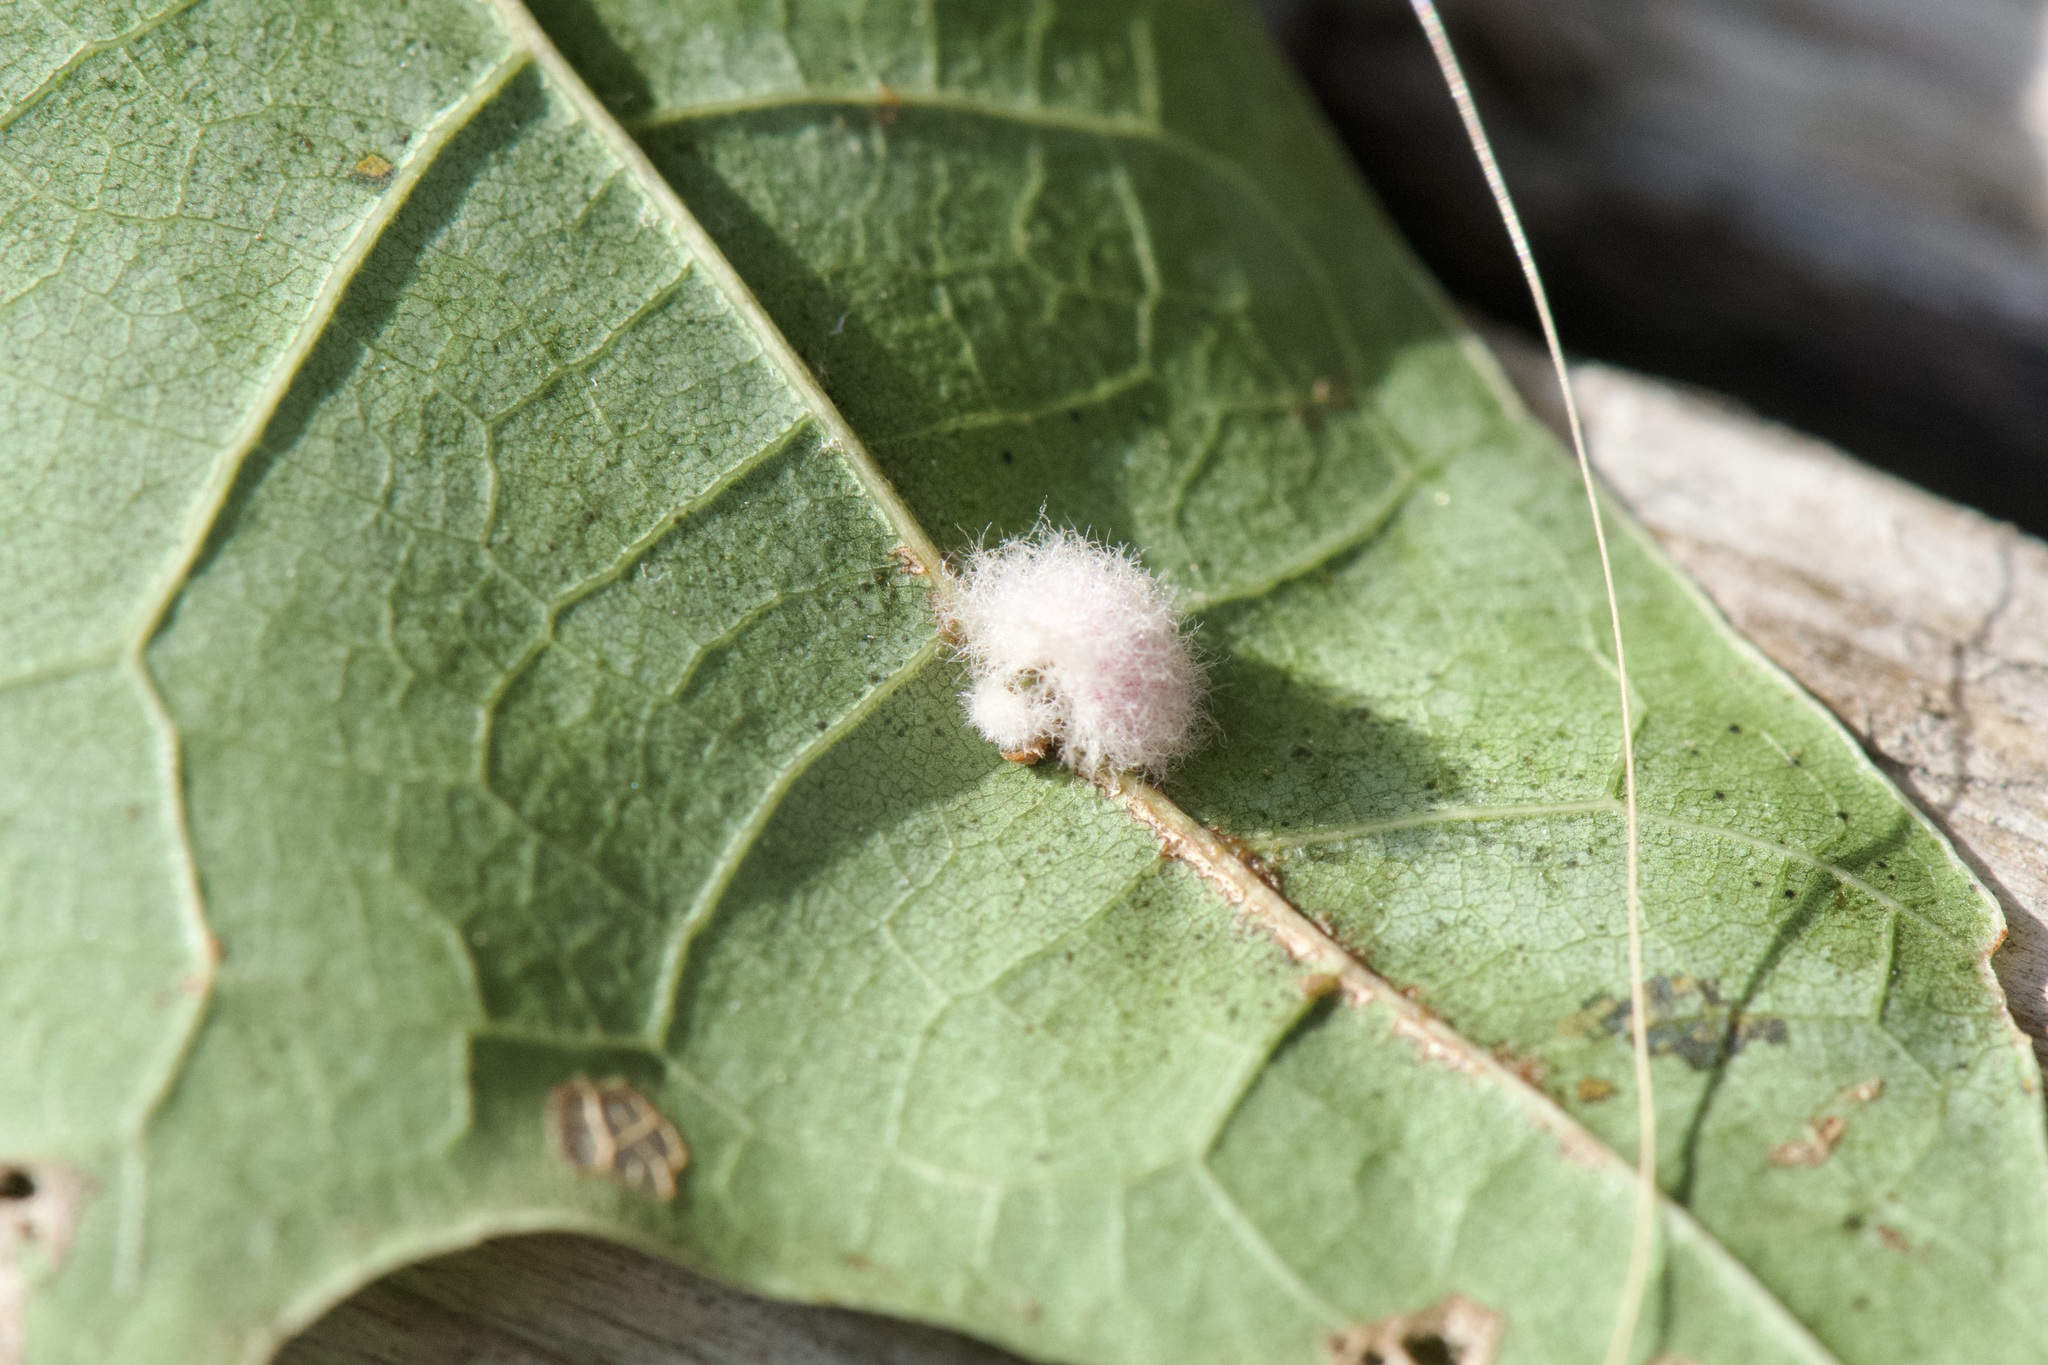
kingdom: Animalia
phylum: Arthropoda
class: Insecta
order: Hymenoptera
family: Cynipidae
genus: Callirhytis
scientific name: Callirhytis
